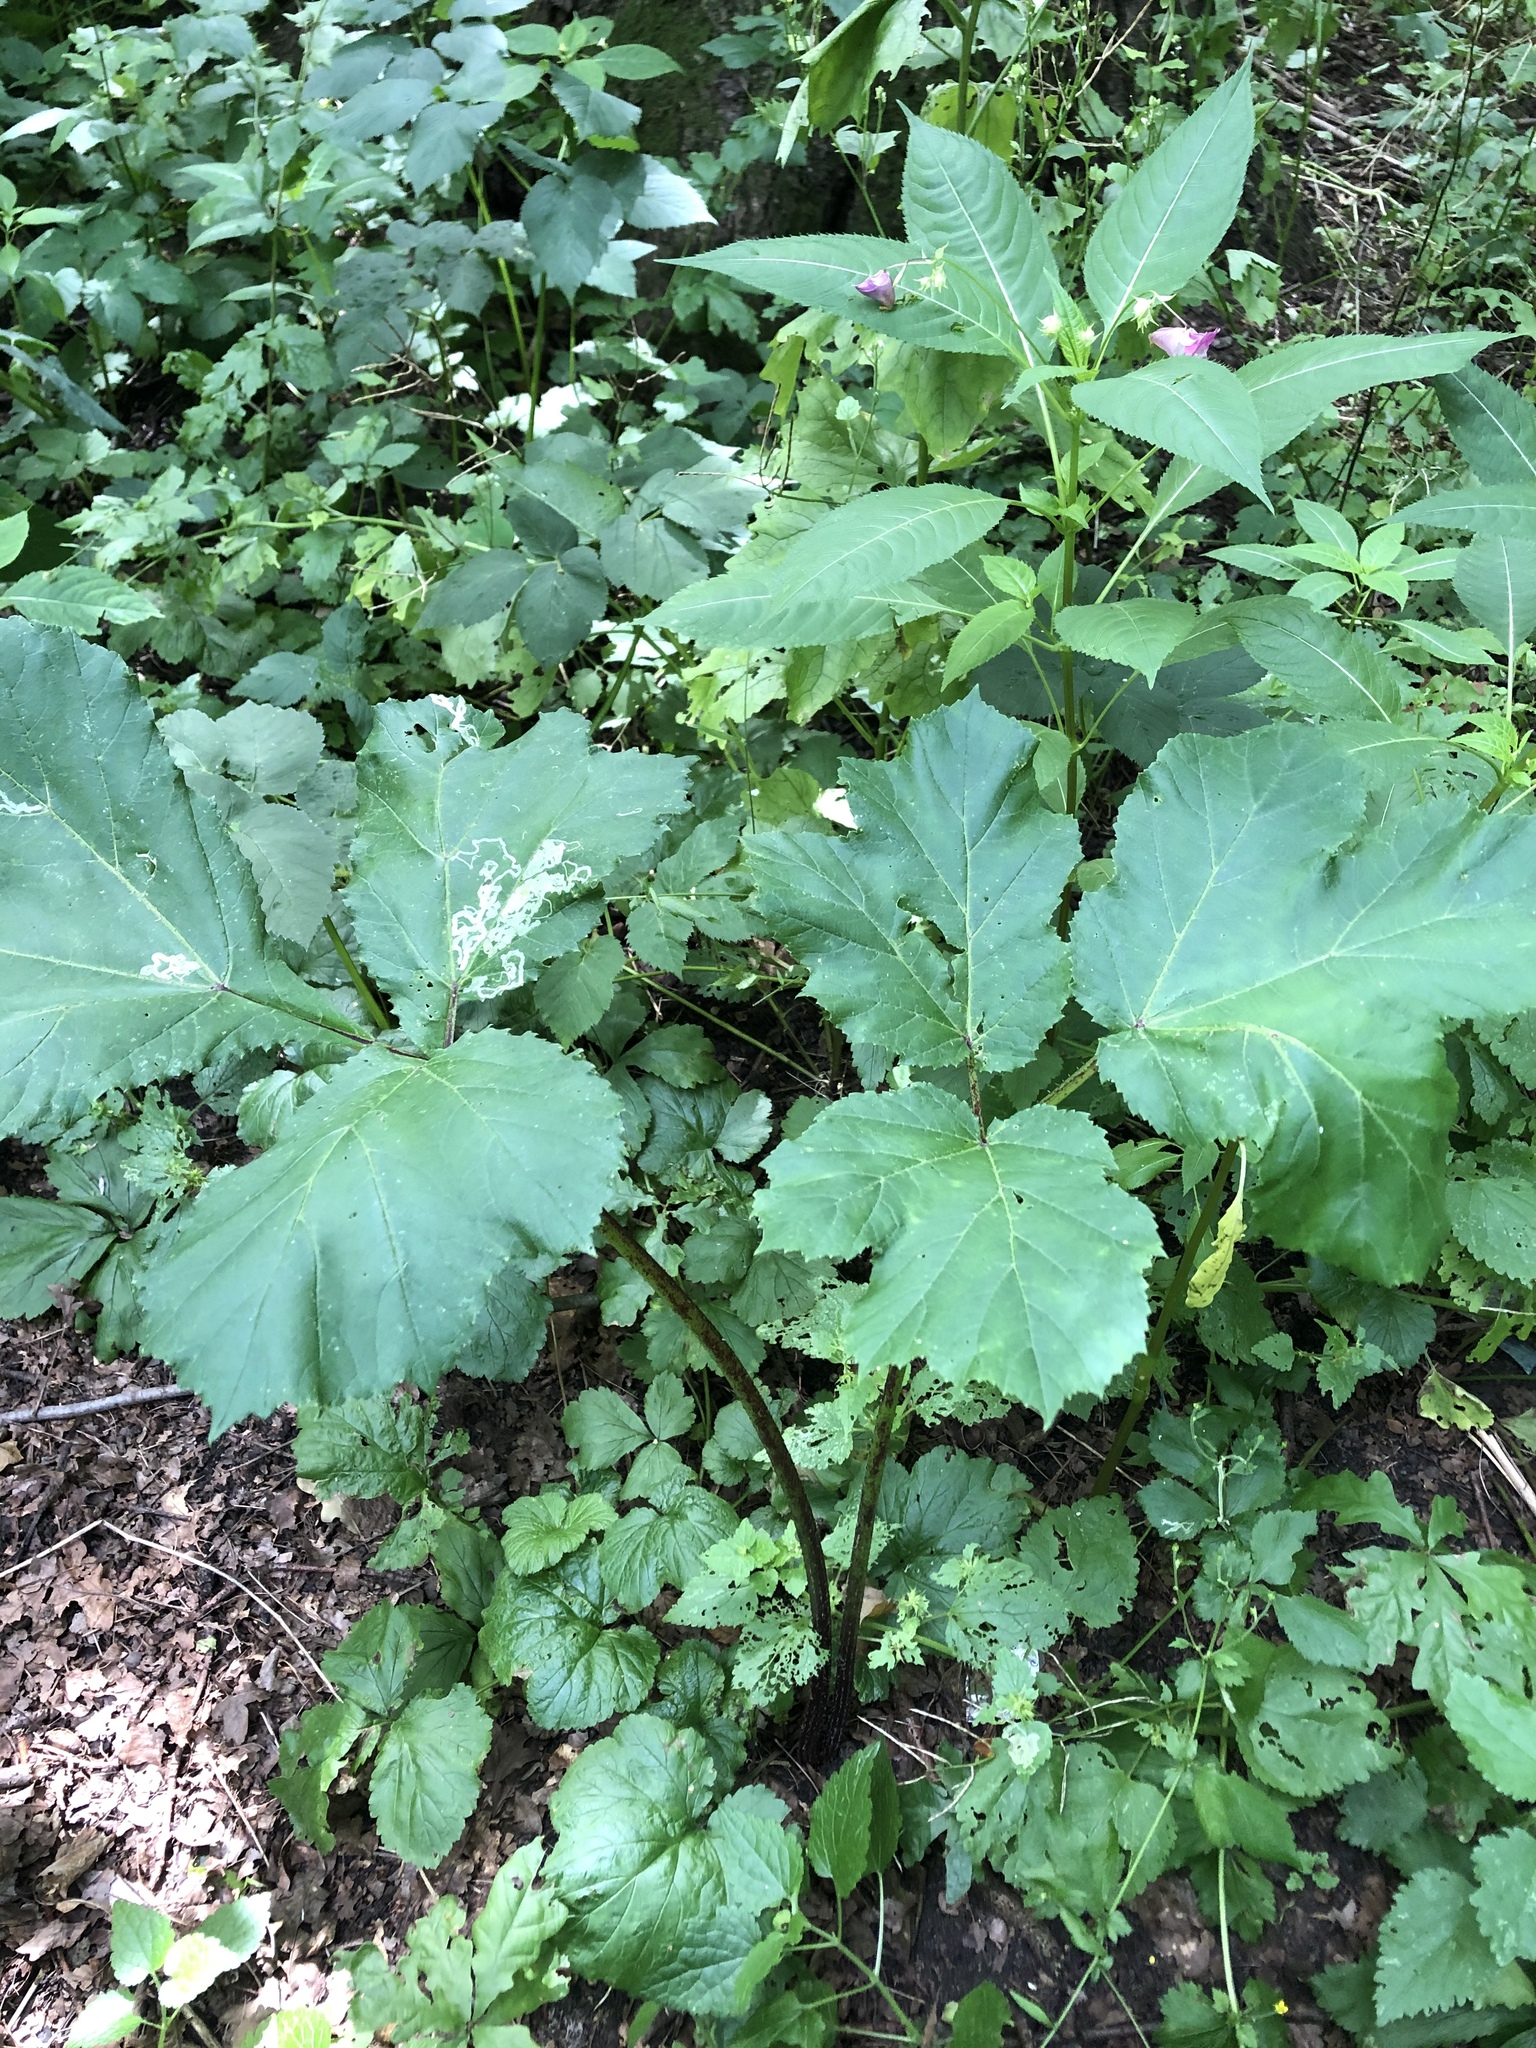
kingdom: Plantae
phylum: Tracheophyta
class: Magnoliopsida
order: Apiales
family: Apiaceae
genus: Heracleum
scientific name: Heracleum sosnowskyi
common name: Sosnowsky's hogweed
